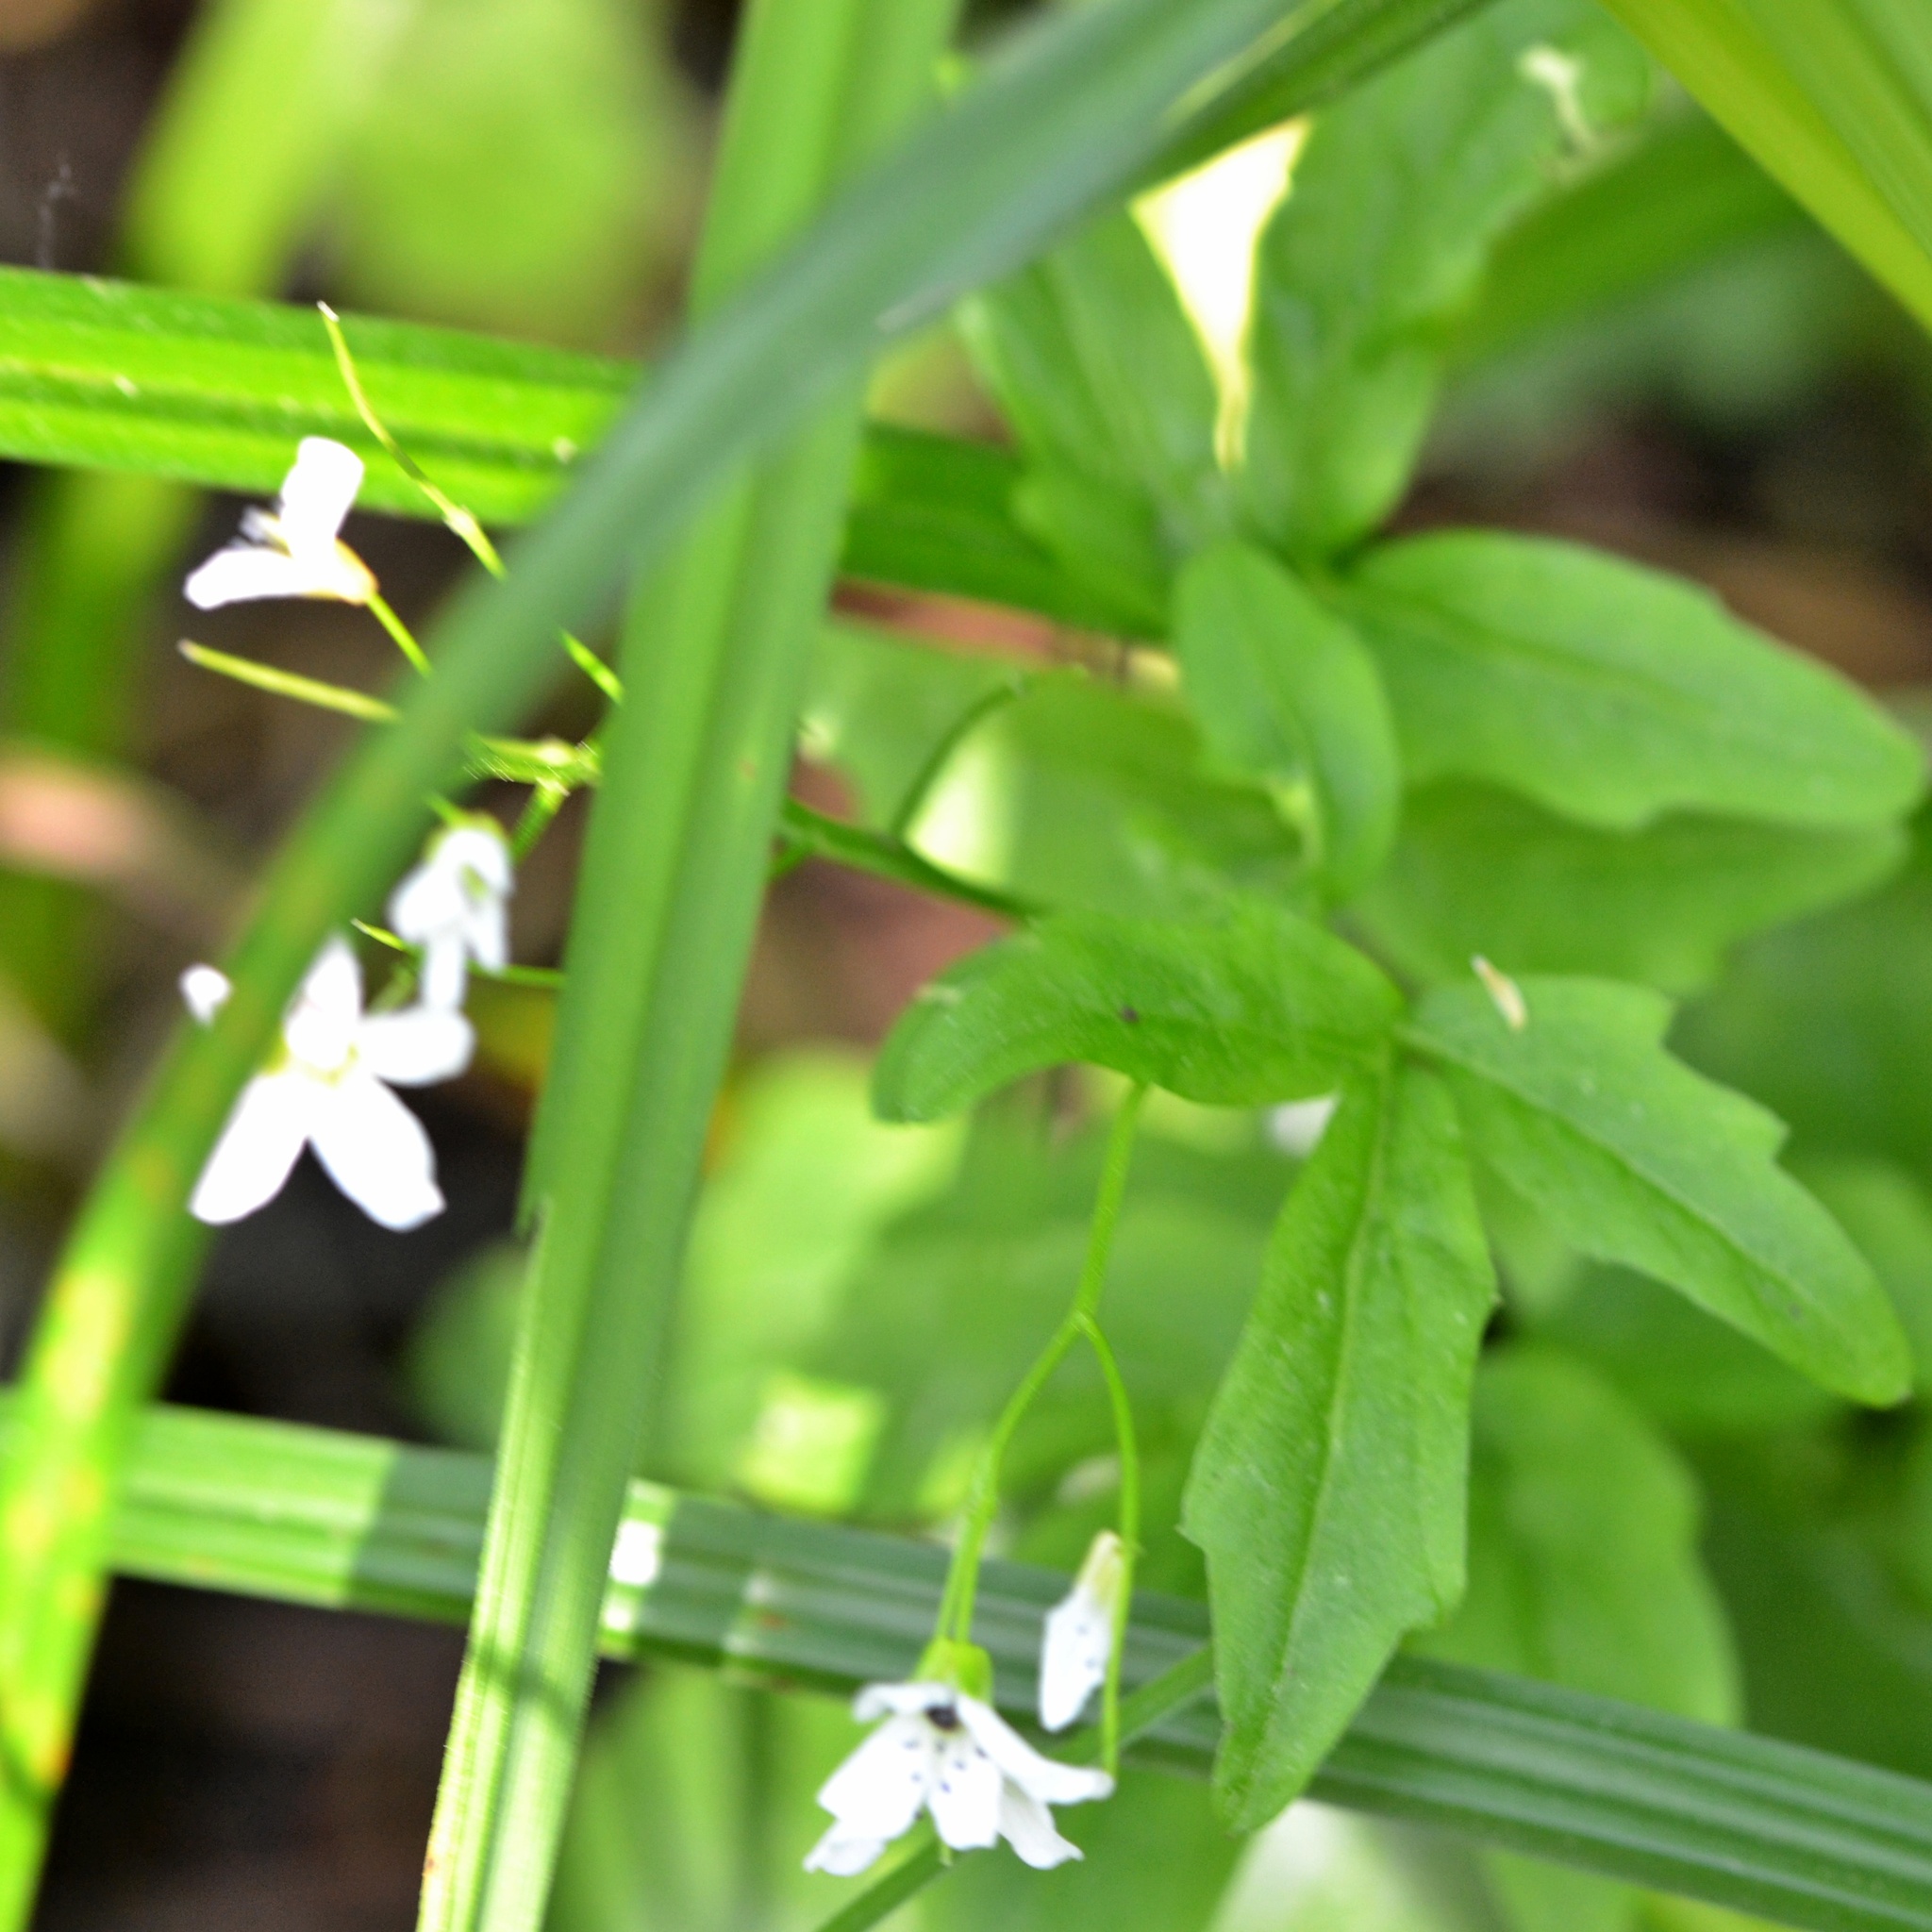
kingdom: Plantae
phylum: Tracheophyta
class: Magnoliopsida
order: Brassicales
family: Brassicaceae
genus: Cardamine
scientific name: Cardamine amara
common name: Large bitter-cress
